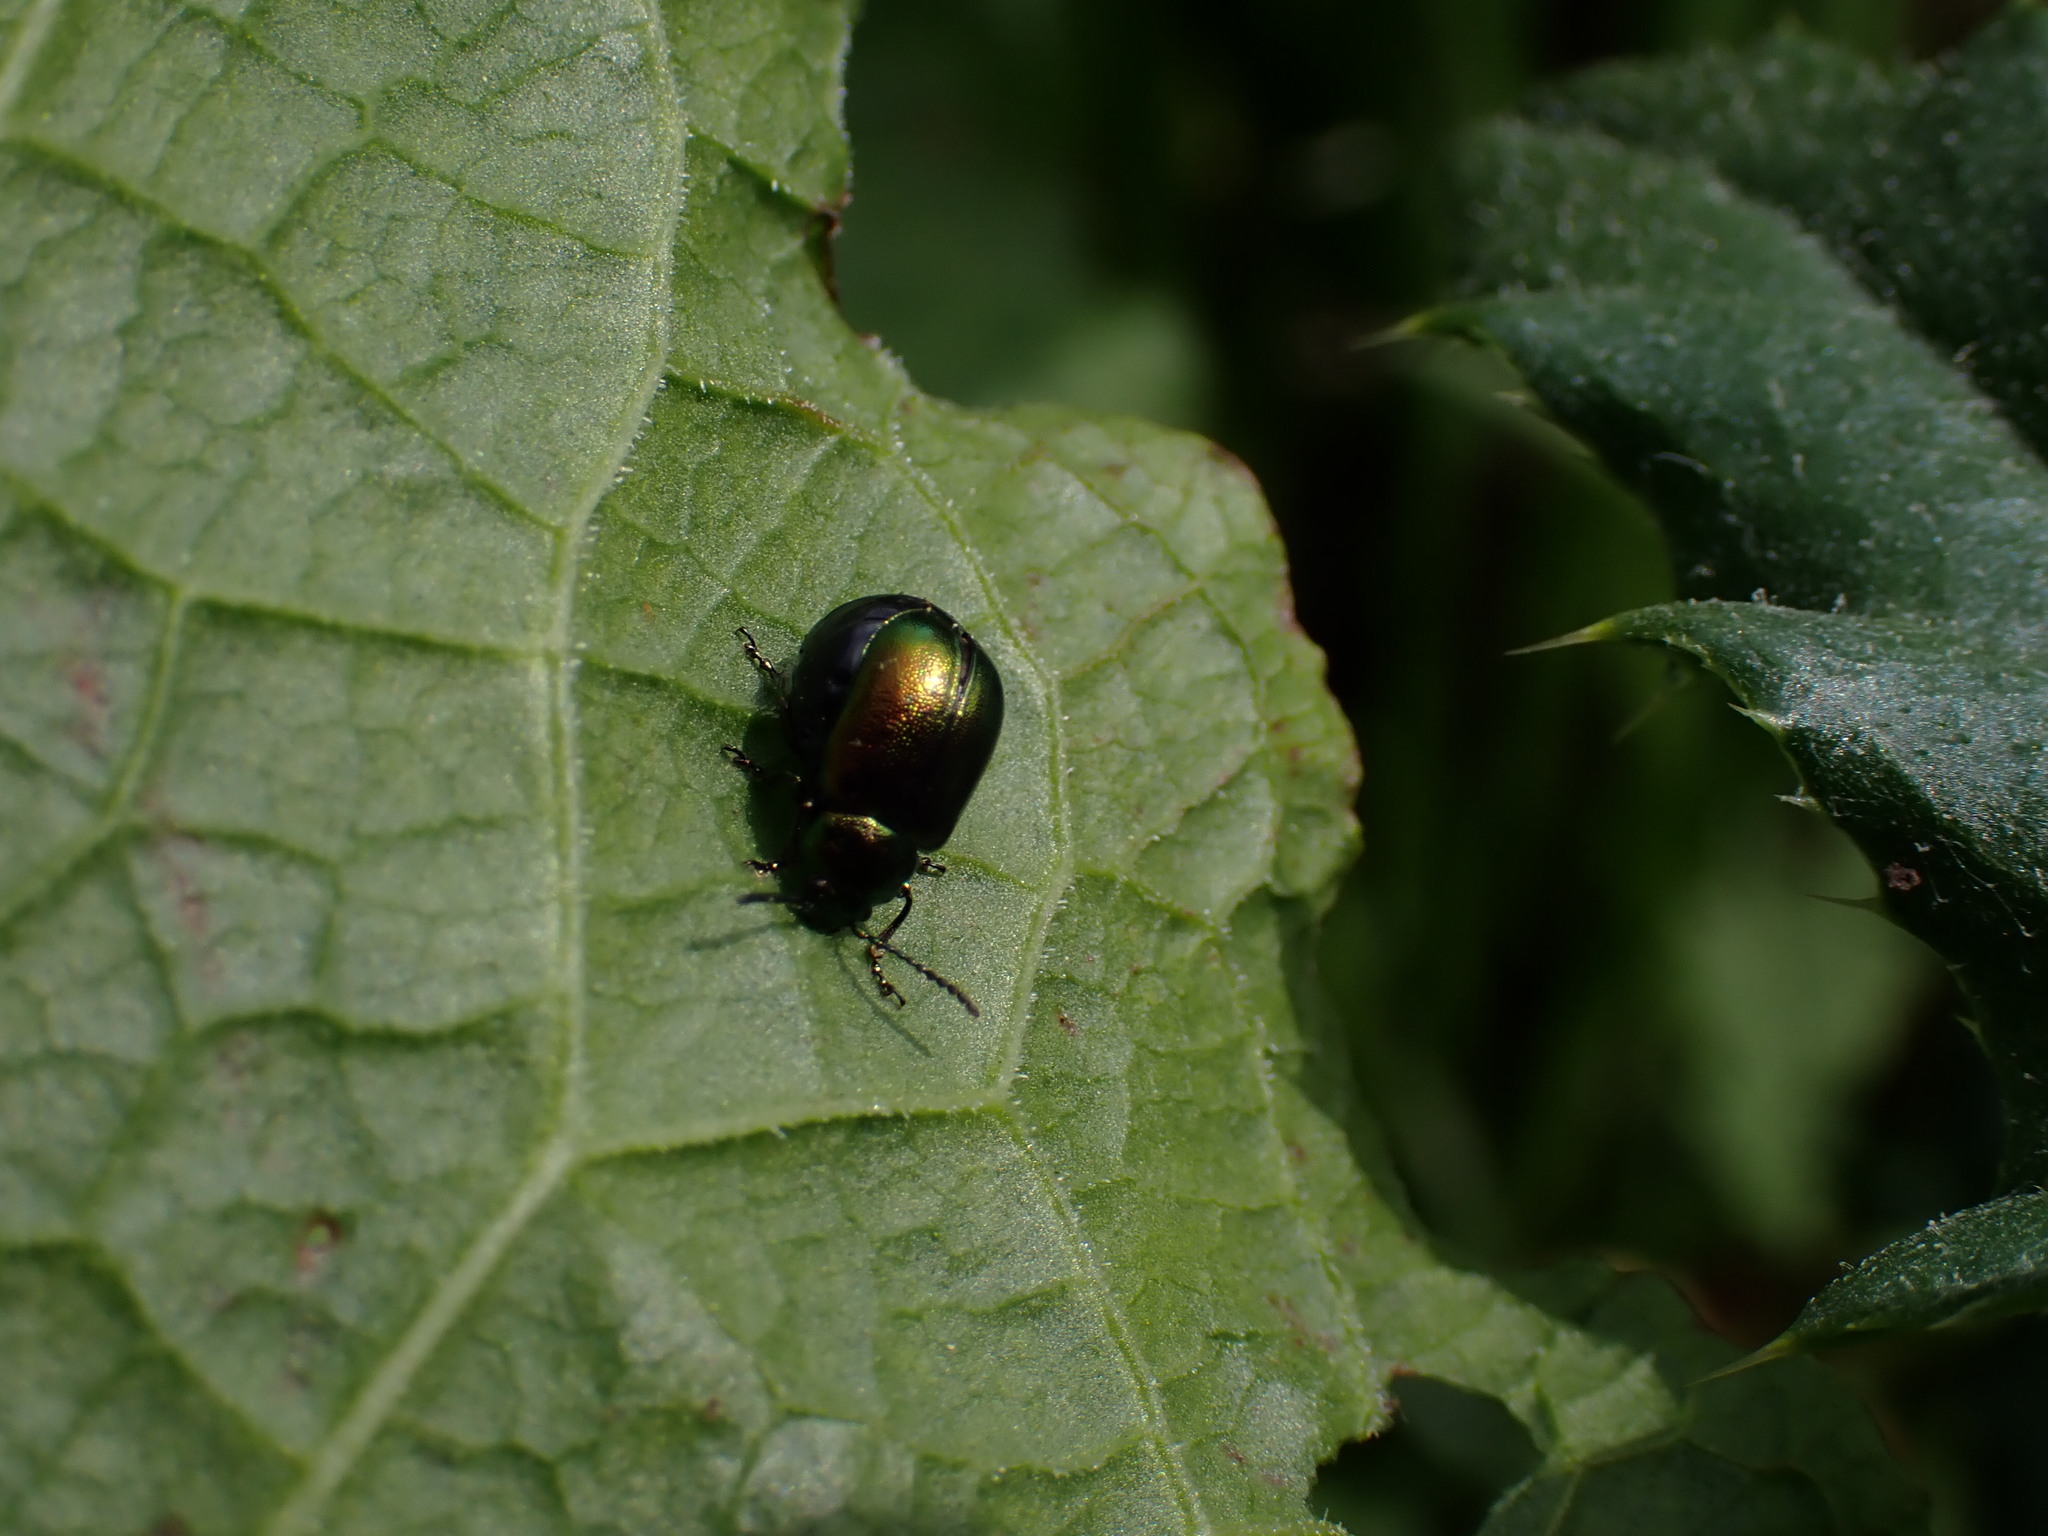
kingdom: Animalia
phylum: Arthropoda
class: Insecta
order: Coleoptera
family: Chrysomelidae
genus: Gastrophysa
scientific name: Gastrophysa viridula
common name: Green dock beetle
